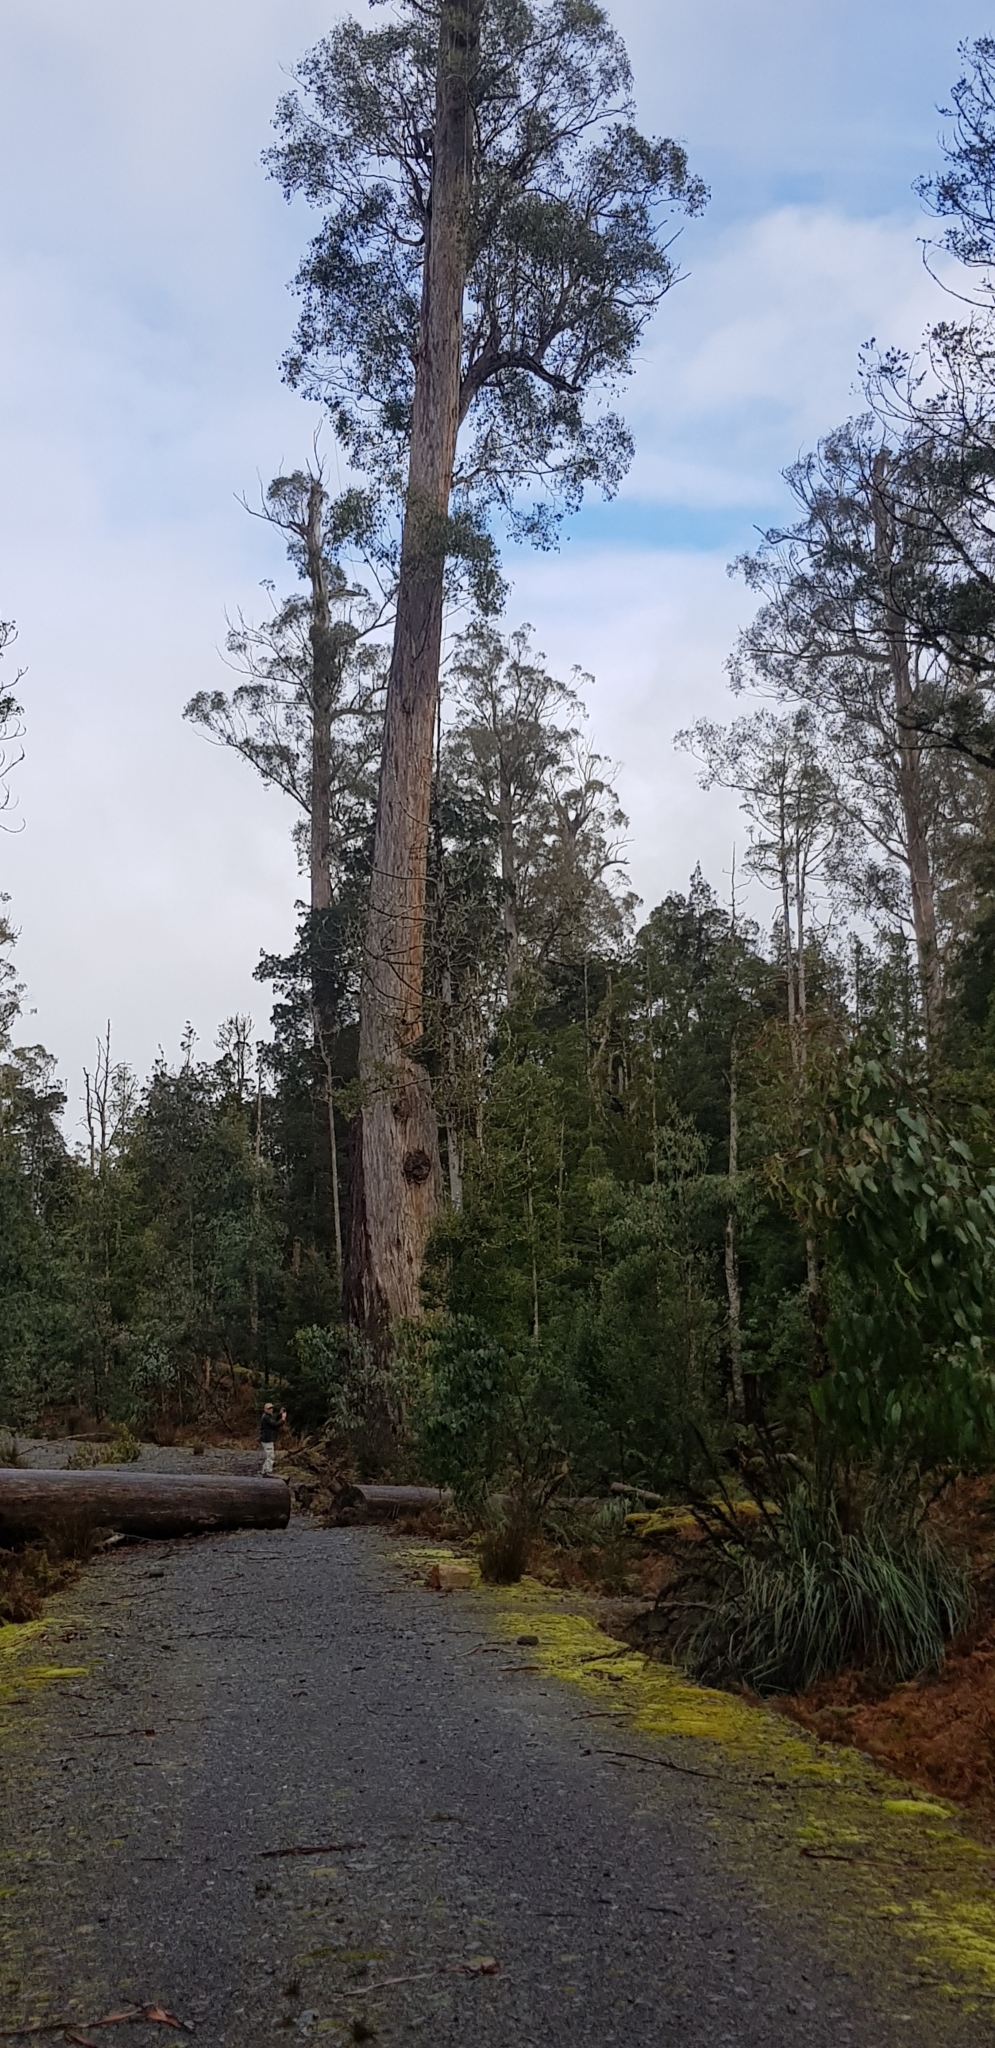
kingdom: Plantae
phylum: Tracheophyta
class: Magnoliopsida
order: Myrtales
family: Myrtaceae
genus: Eucalyptus
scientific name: Eucalyptus
